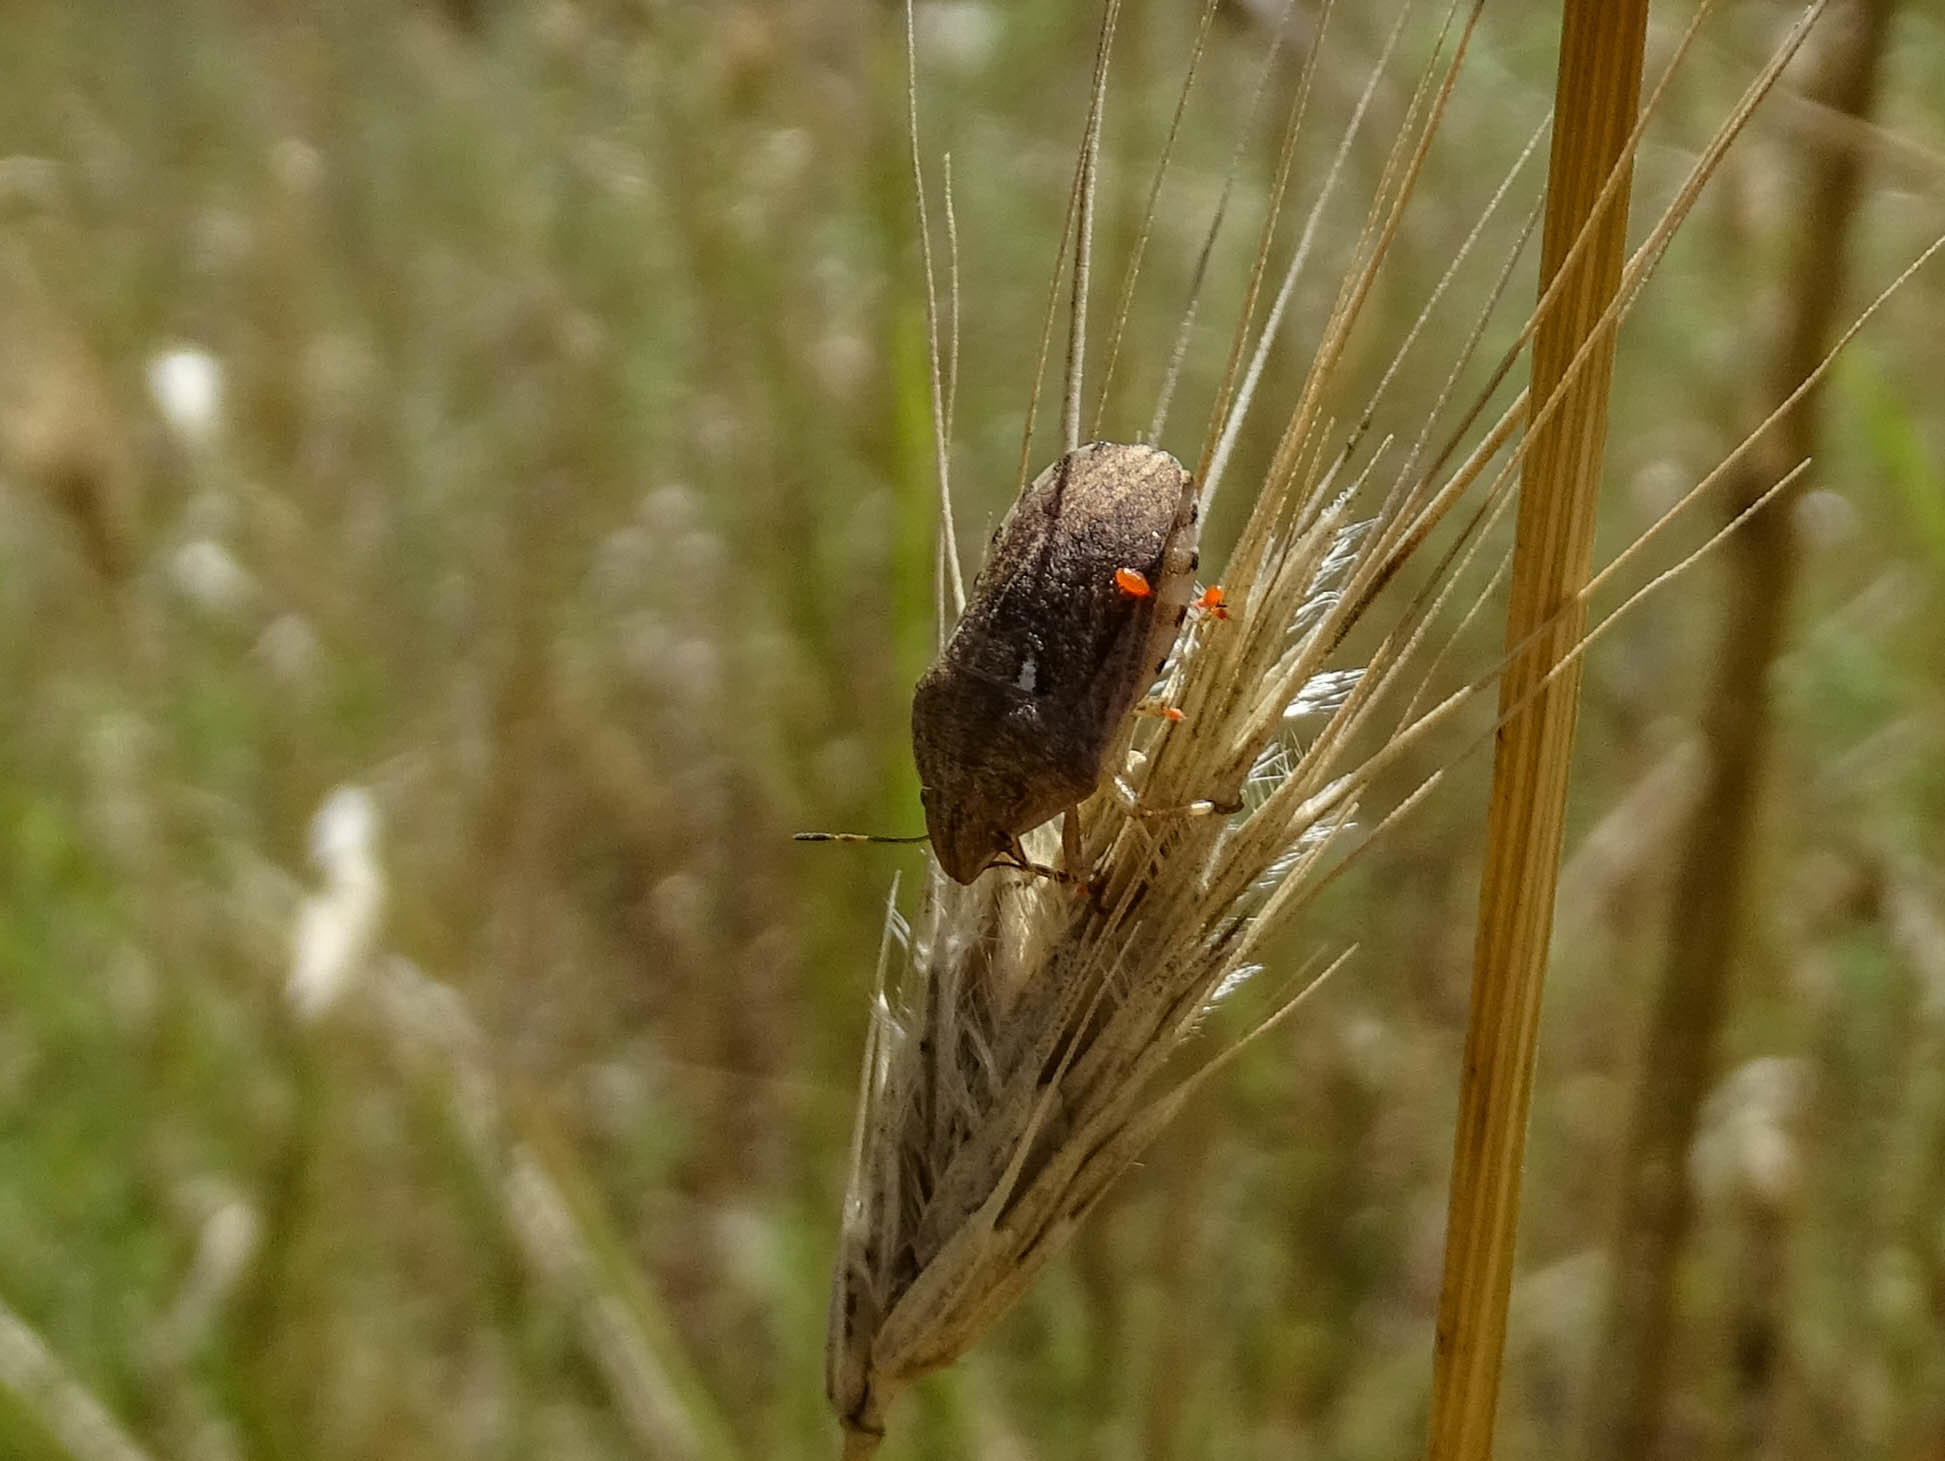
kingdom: Animalia
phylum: Arthropoda
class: Insecta
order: Hemiptera
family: Scutelleridae
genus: Eurygaster
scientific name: Eurygaster integriceps
